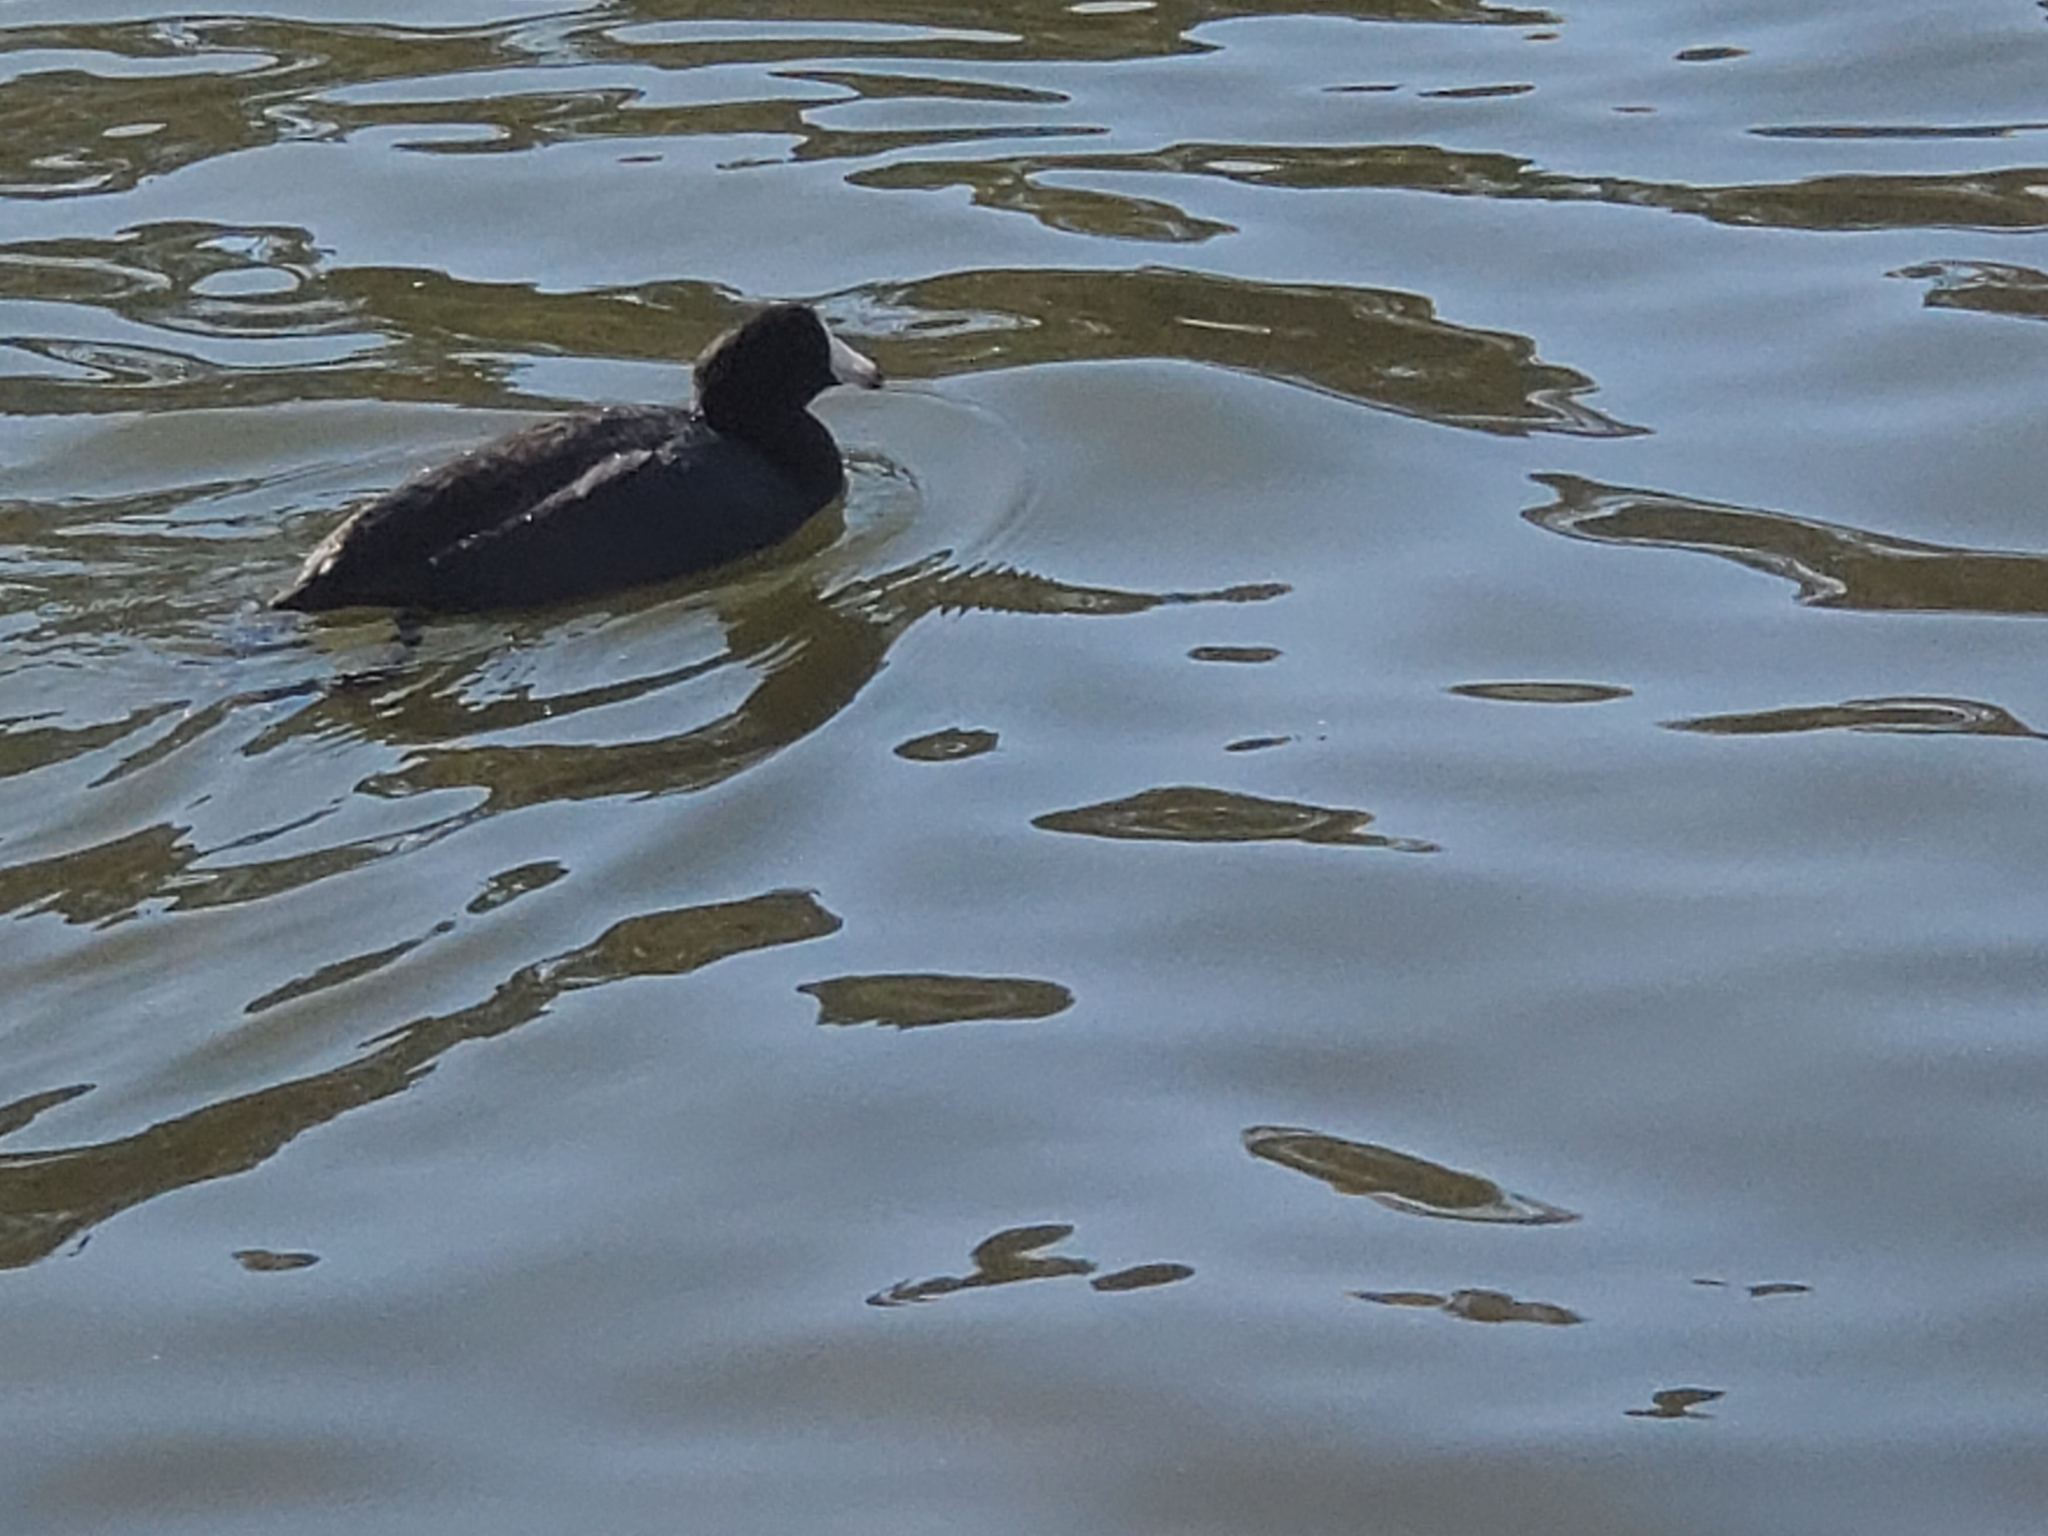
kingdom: Animalia
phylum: Chordata
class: Aves
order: Gruiformes
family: Rallidae
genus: Fulica
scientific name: Fulica americana
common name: American coot
